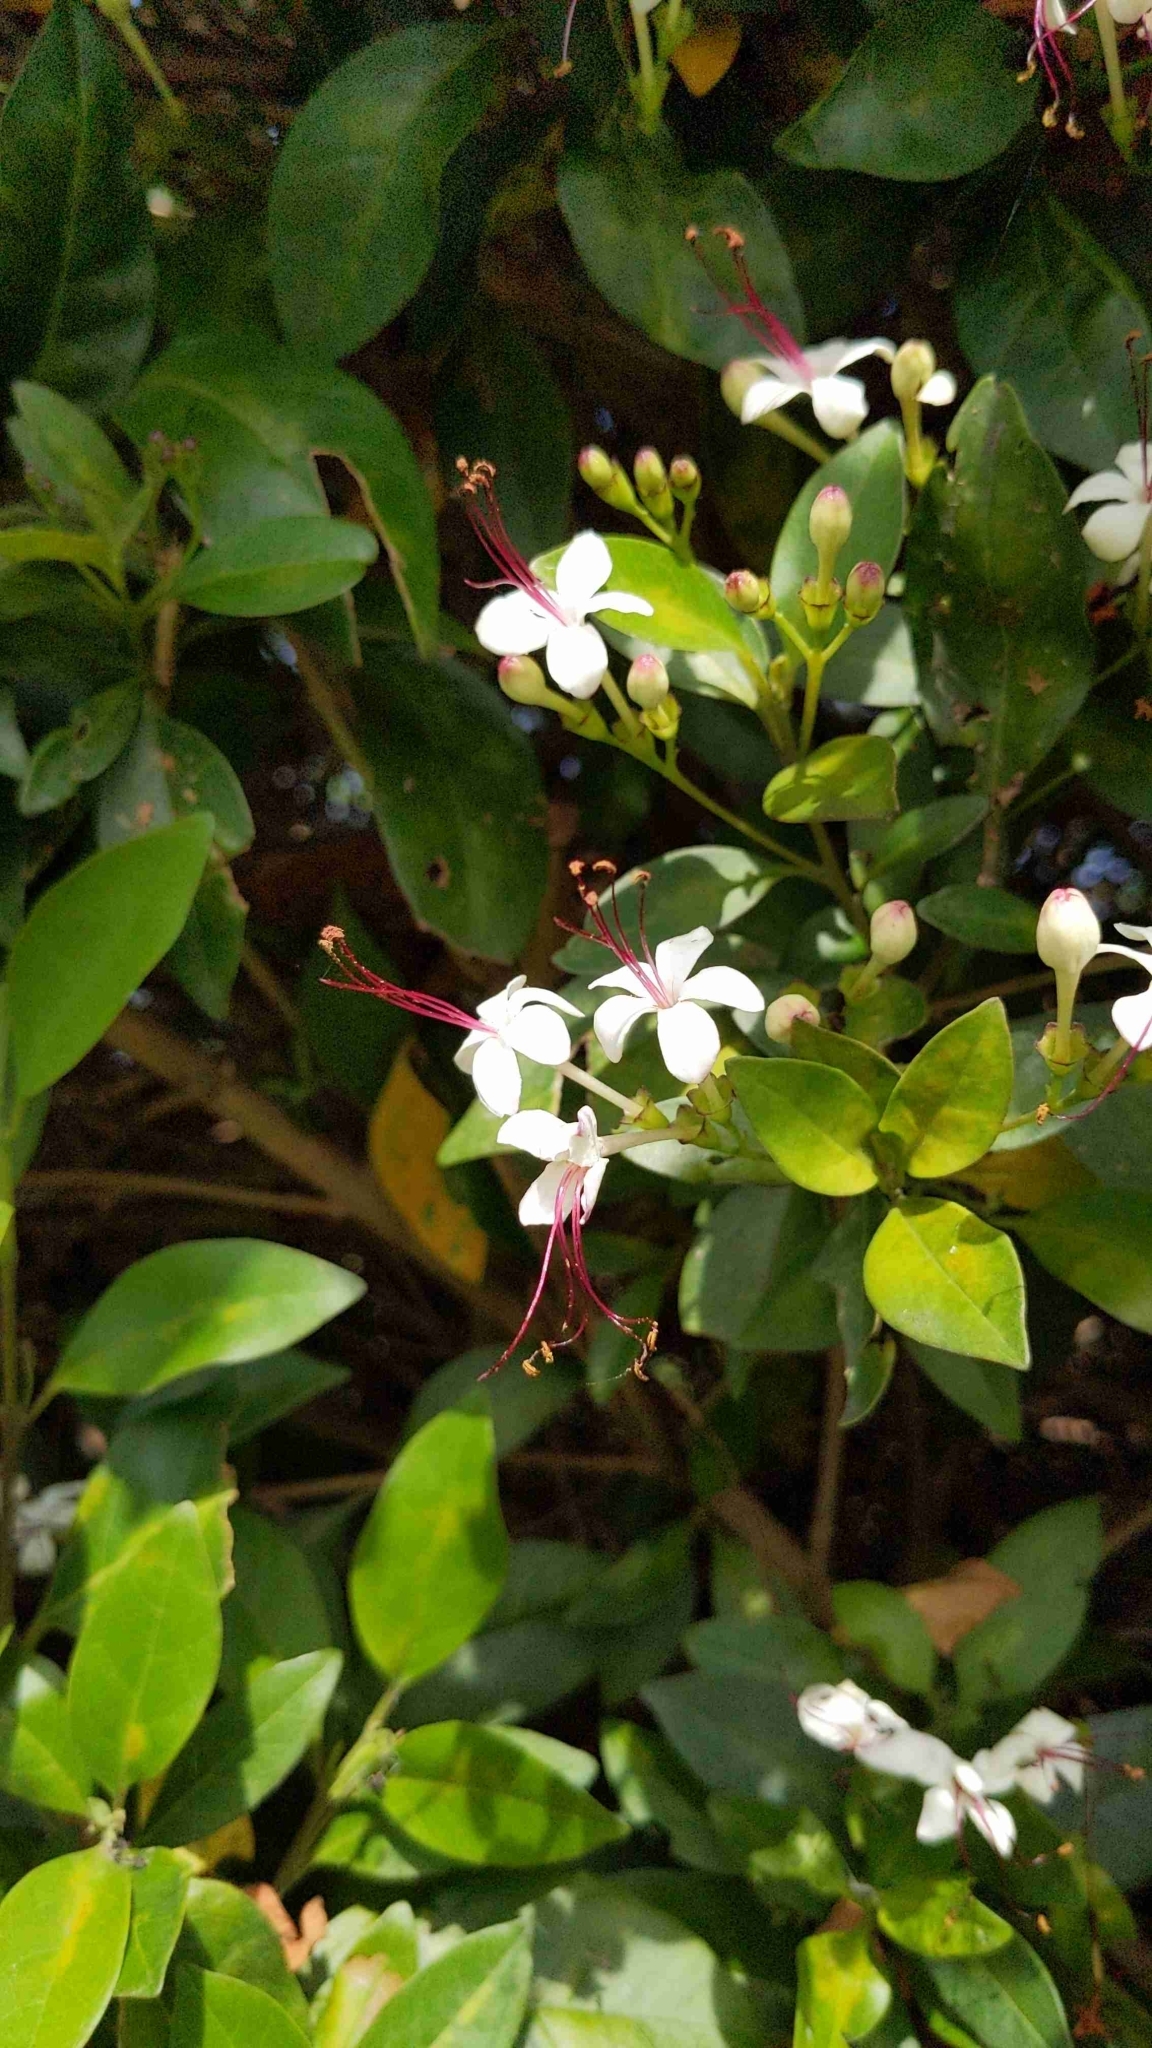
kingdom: Plantae
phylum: Tracheophyta
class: Magnoliopsida
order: Lamiales
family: Lamiaceae
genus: Volkameria
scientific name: Volkameria inermis
